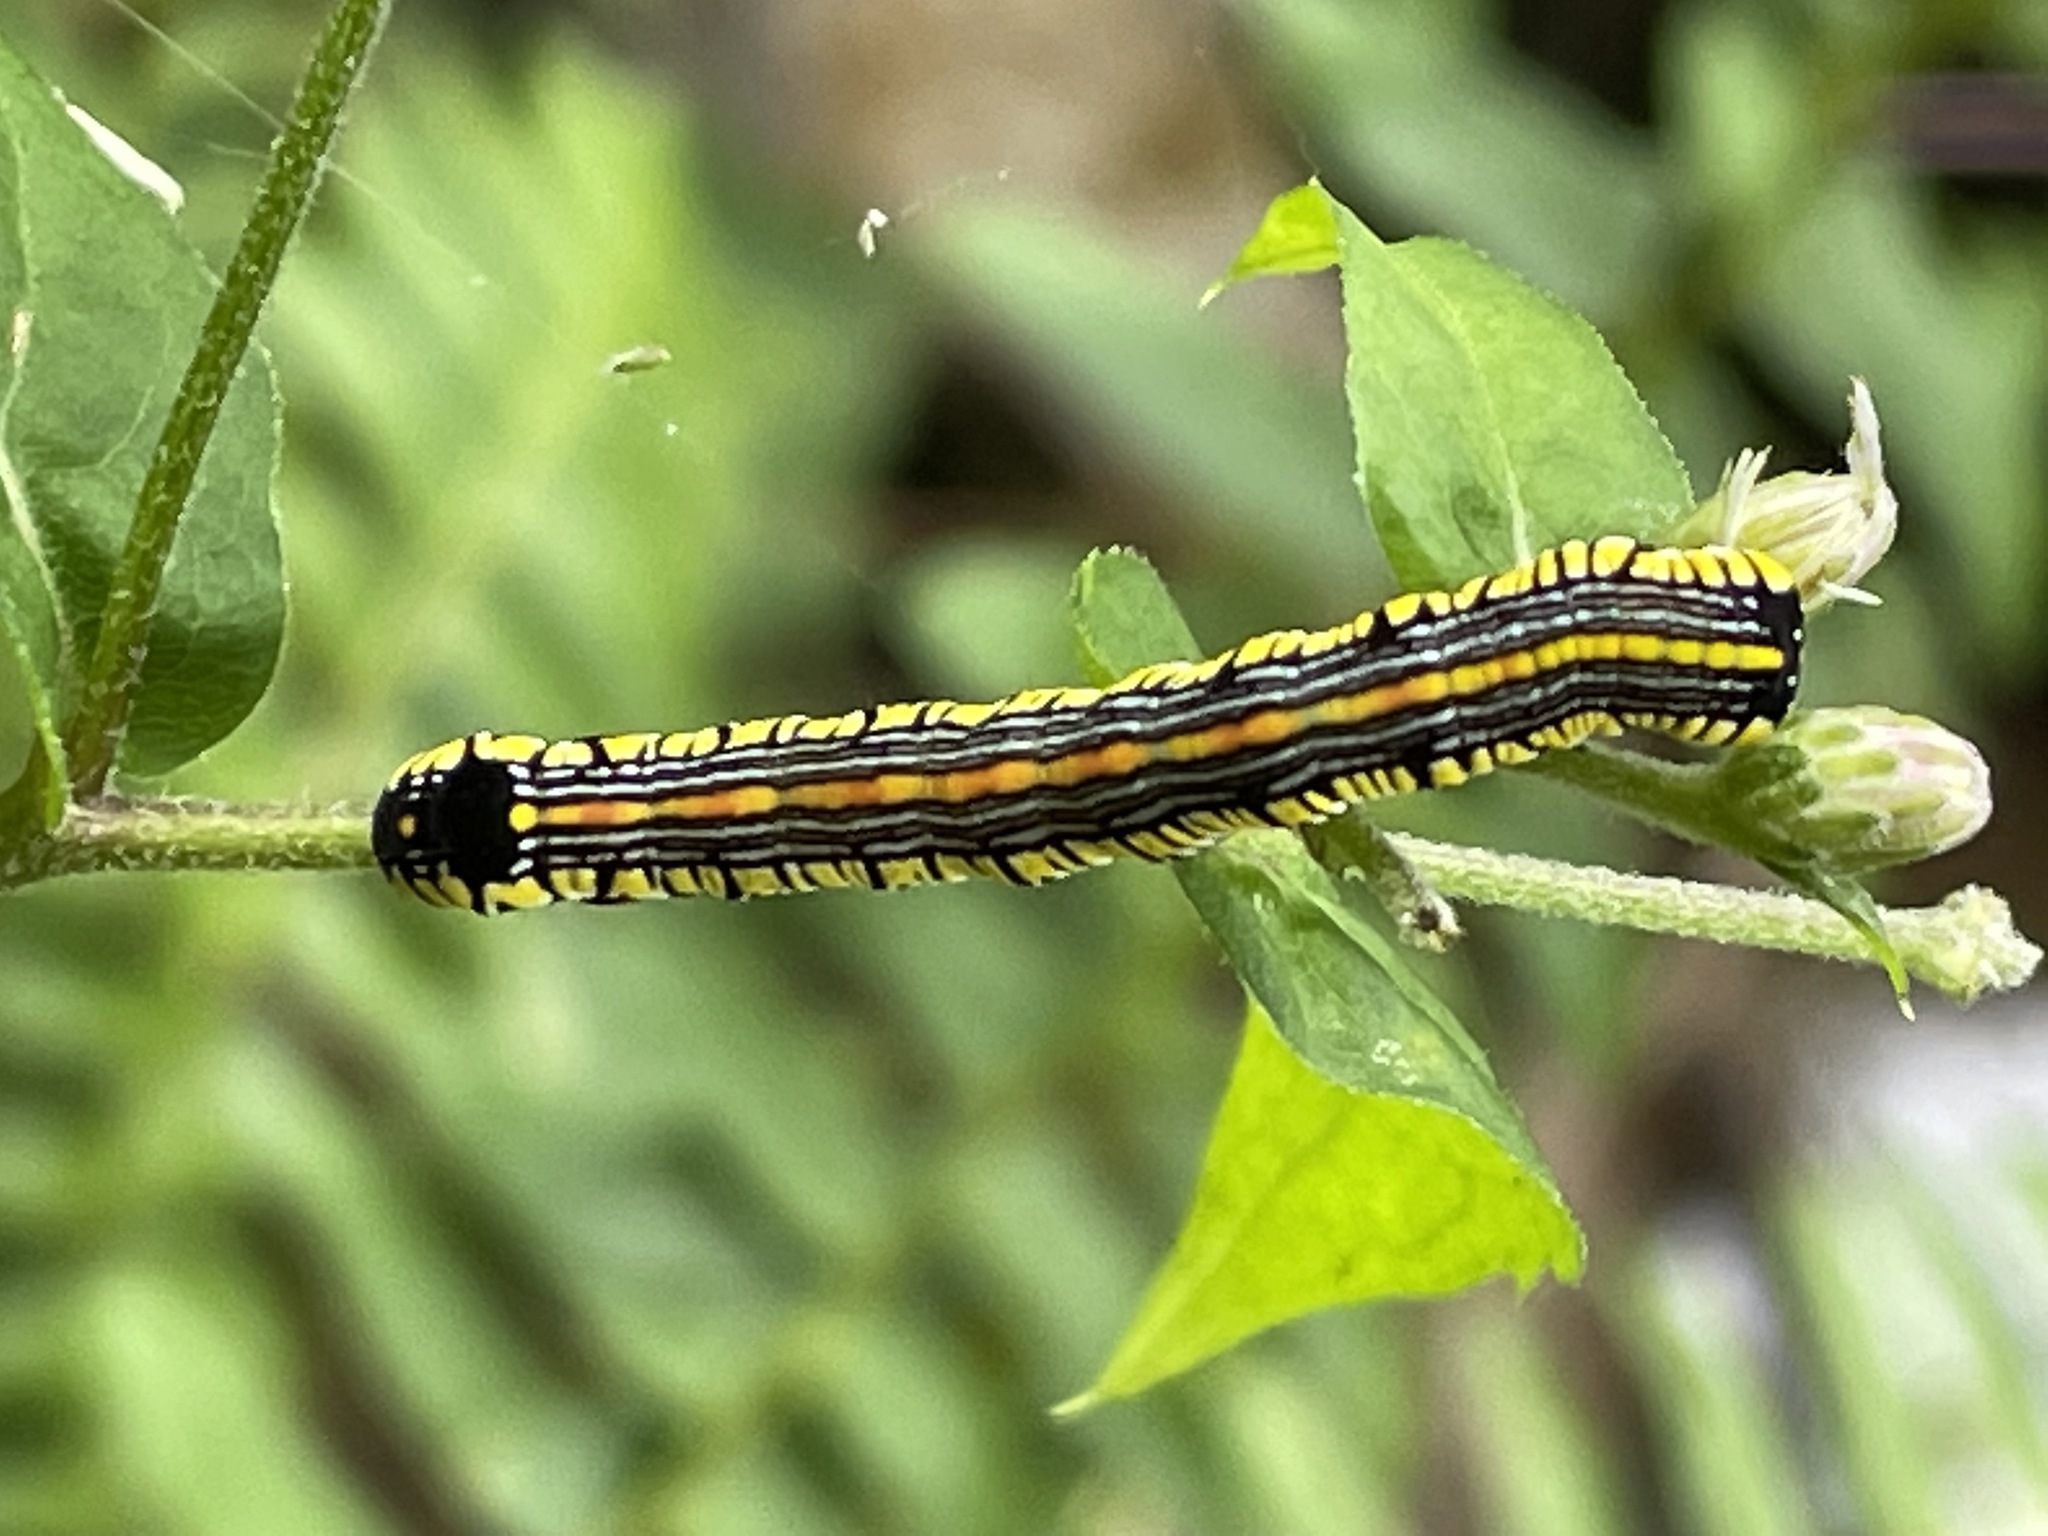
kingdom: Animalia
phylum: Arthropoda
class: Insecta
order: Lepidoptera
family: Noctuidae
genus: Cucullia
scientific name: Cucullia convexipennis
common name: Brown-hooded owlet
